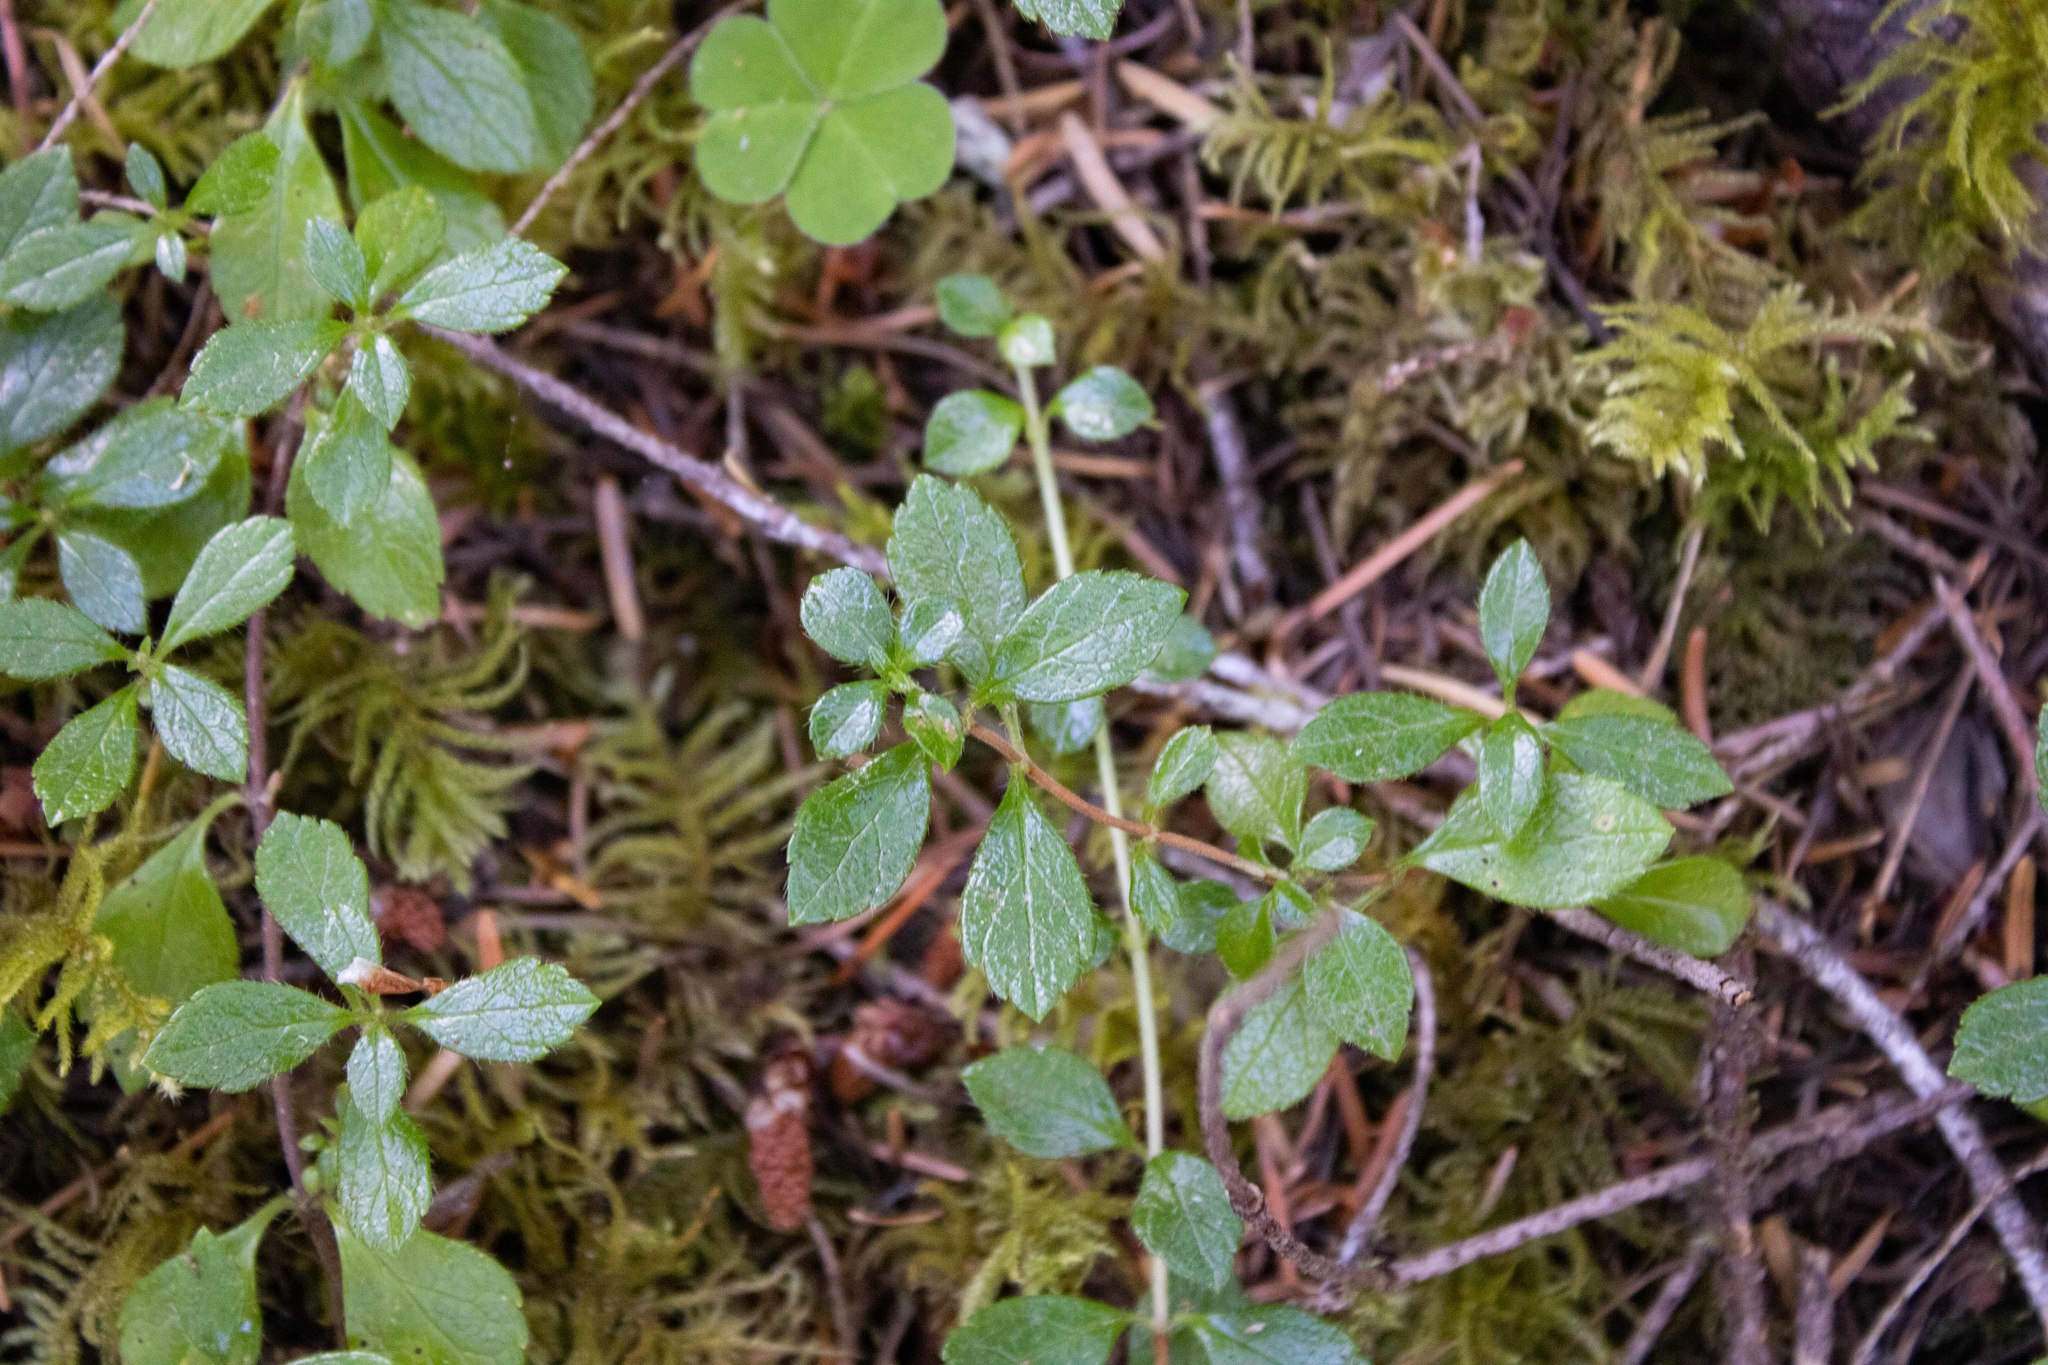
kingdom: Plantae
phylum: Tracheophyta
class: Magnoliopsida
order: Dipsacales
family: Caprifoliaceae
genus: Linnaea
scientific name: Linnaea borealis
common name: Twinflower
